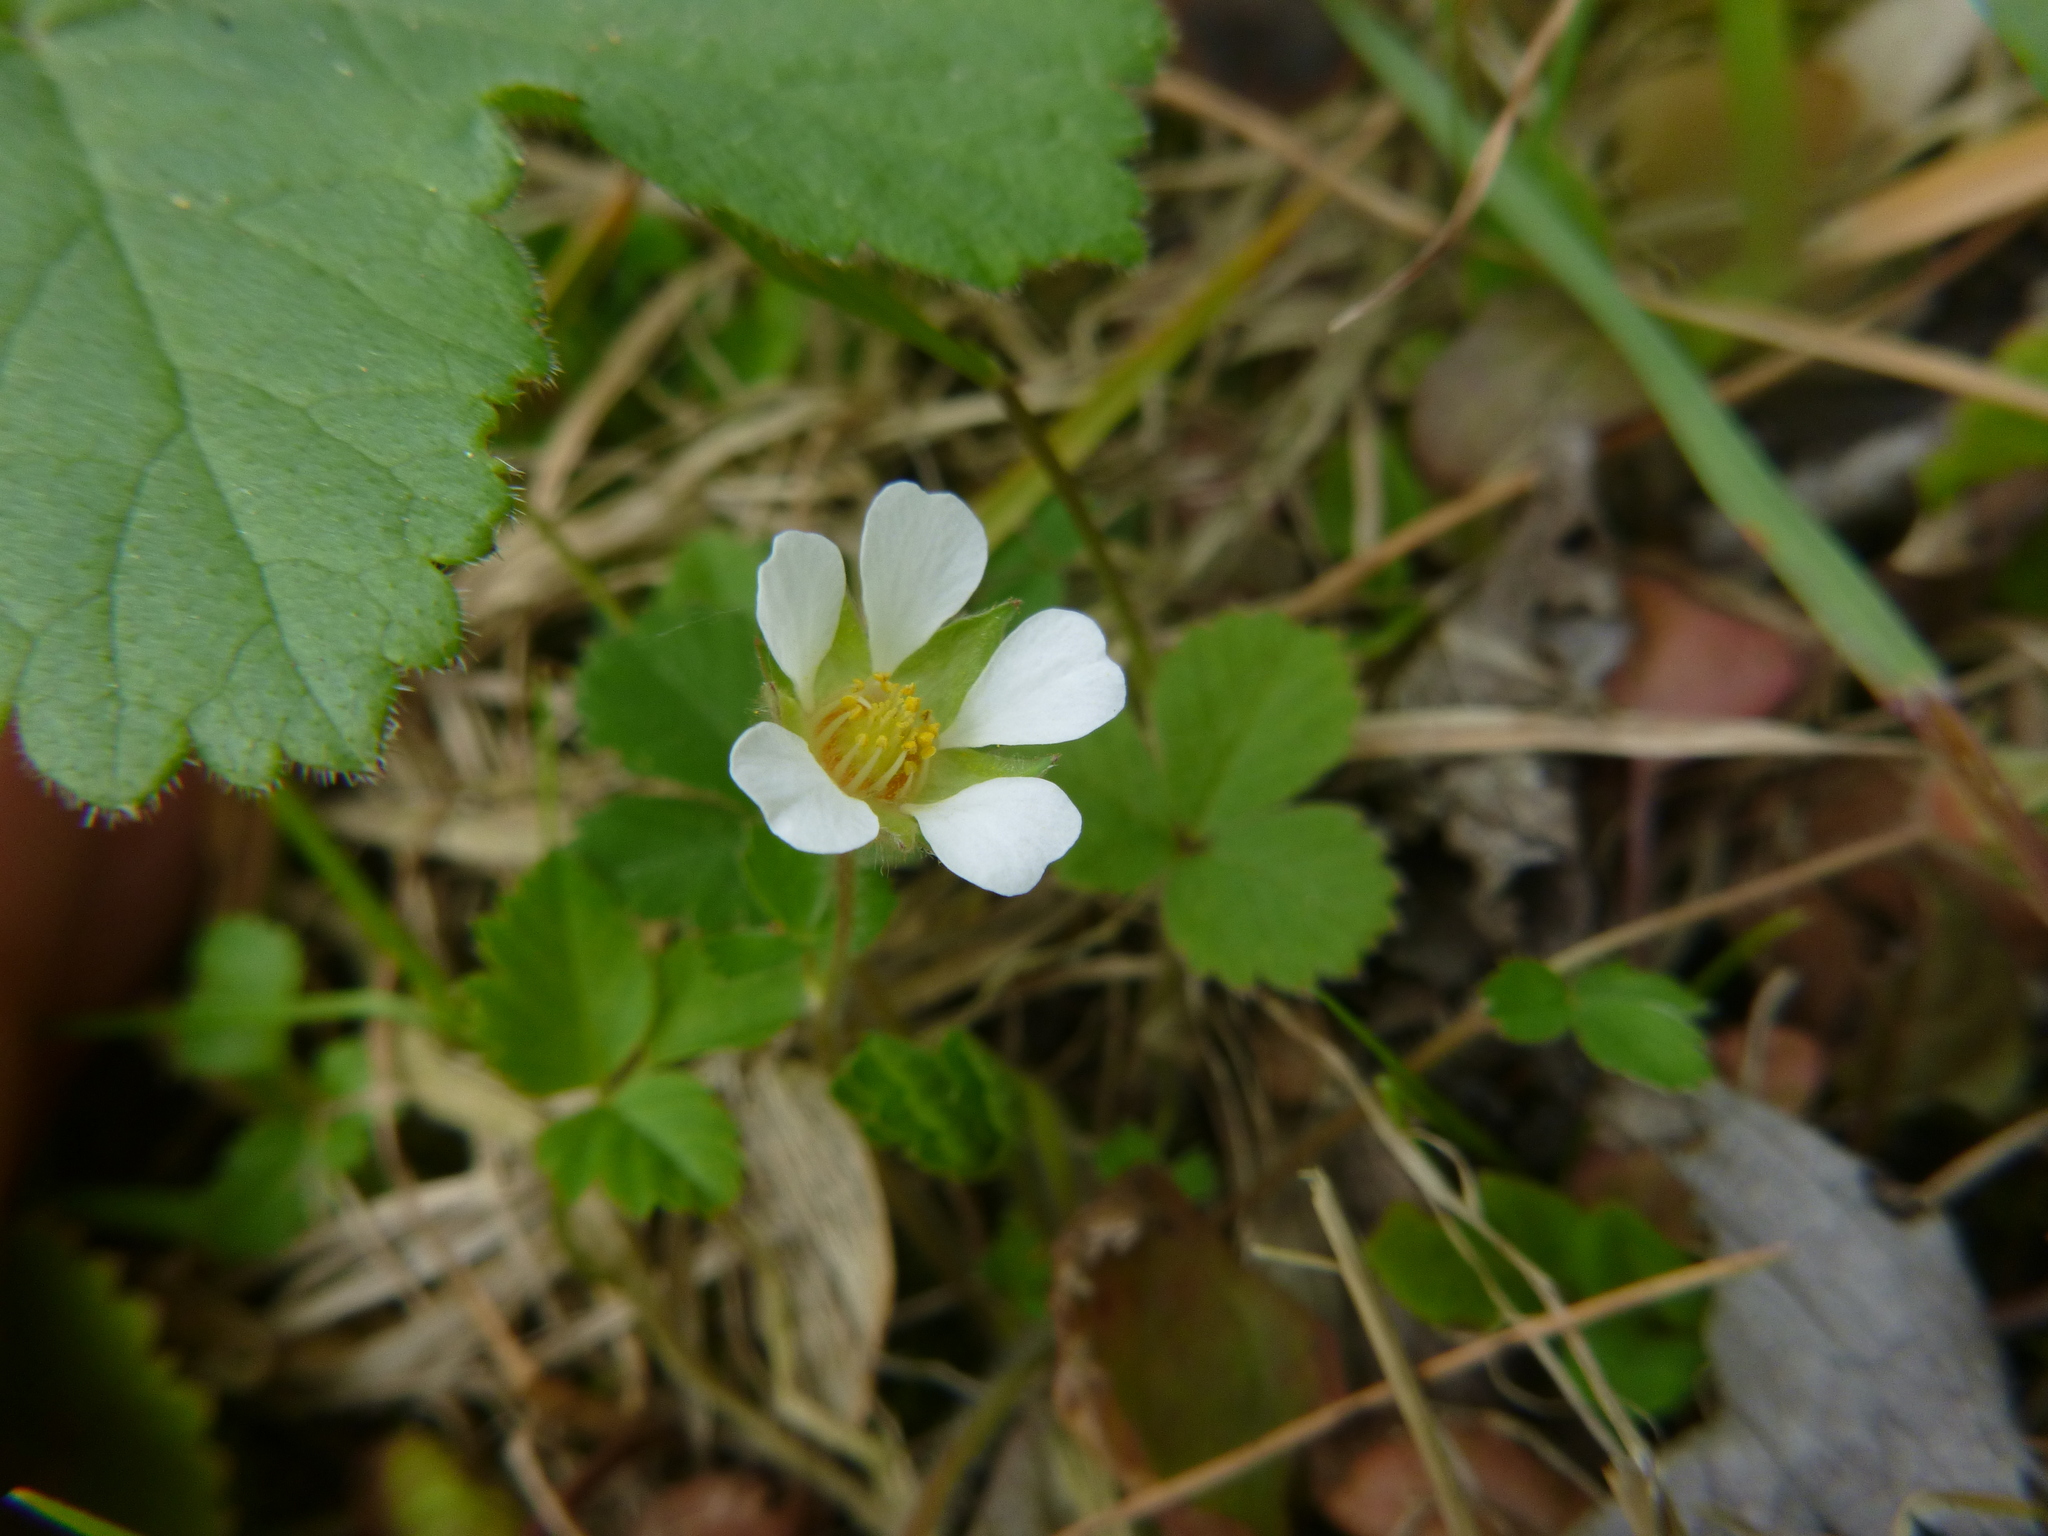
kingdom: Plantae
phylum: Tracheophyta
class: Magnoliopsida
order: Rosales
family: Rosaceae
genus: Potentilla
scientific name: Potentilla sterilis
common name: Barren strawberry
